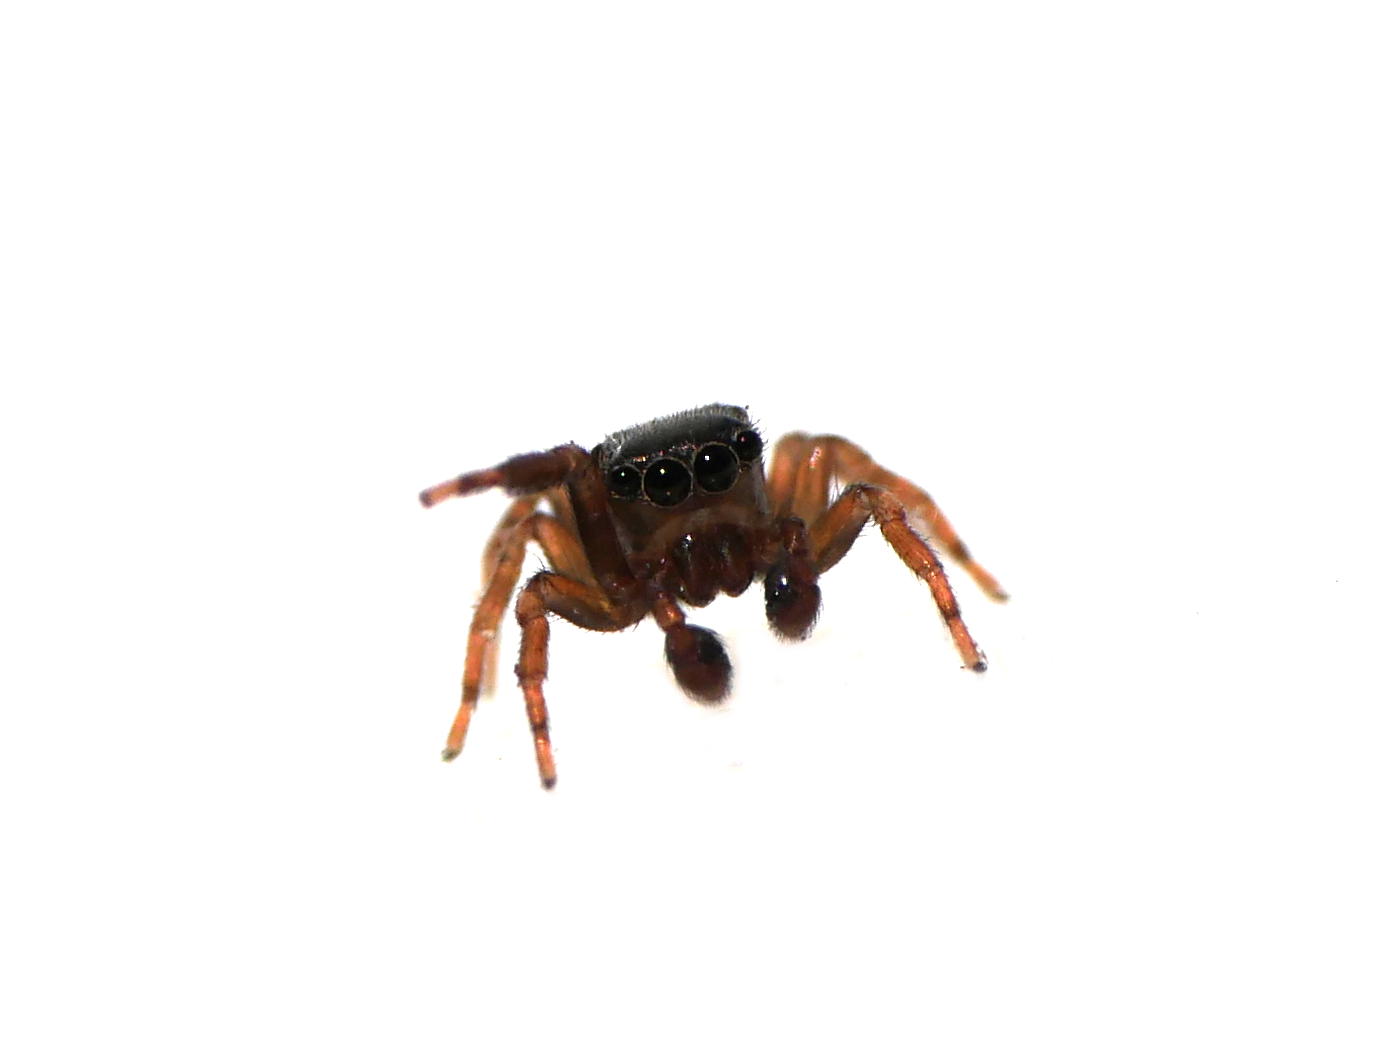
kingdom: Animalia
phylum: Arthropoda
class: Arachnida
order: Araneae
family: Salticidae
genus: Neon
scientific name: Neon reticulatus
